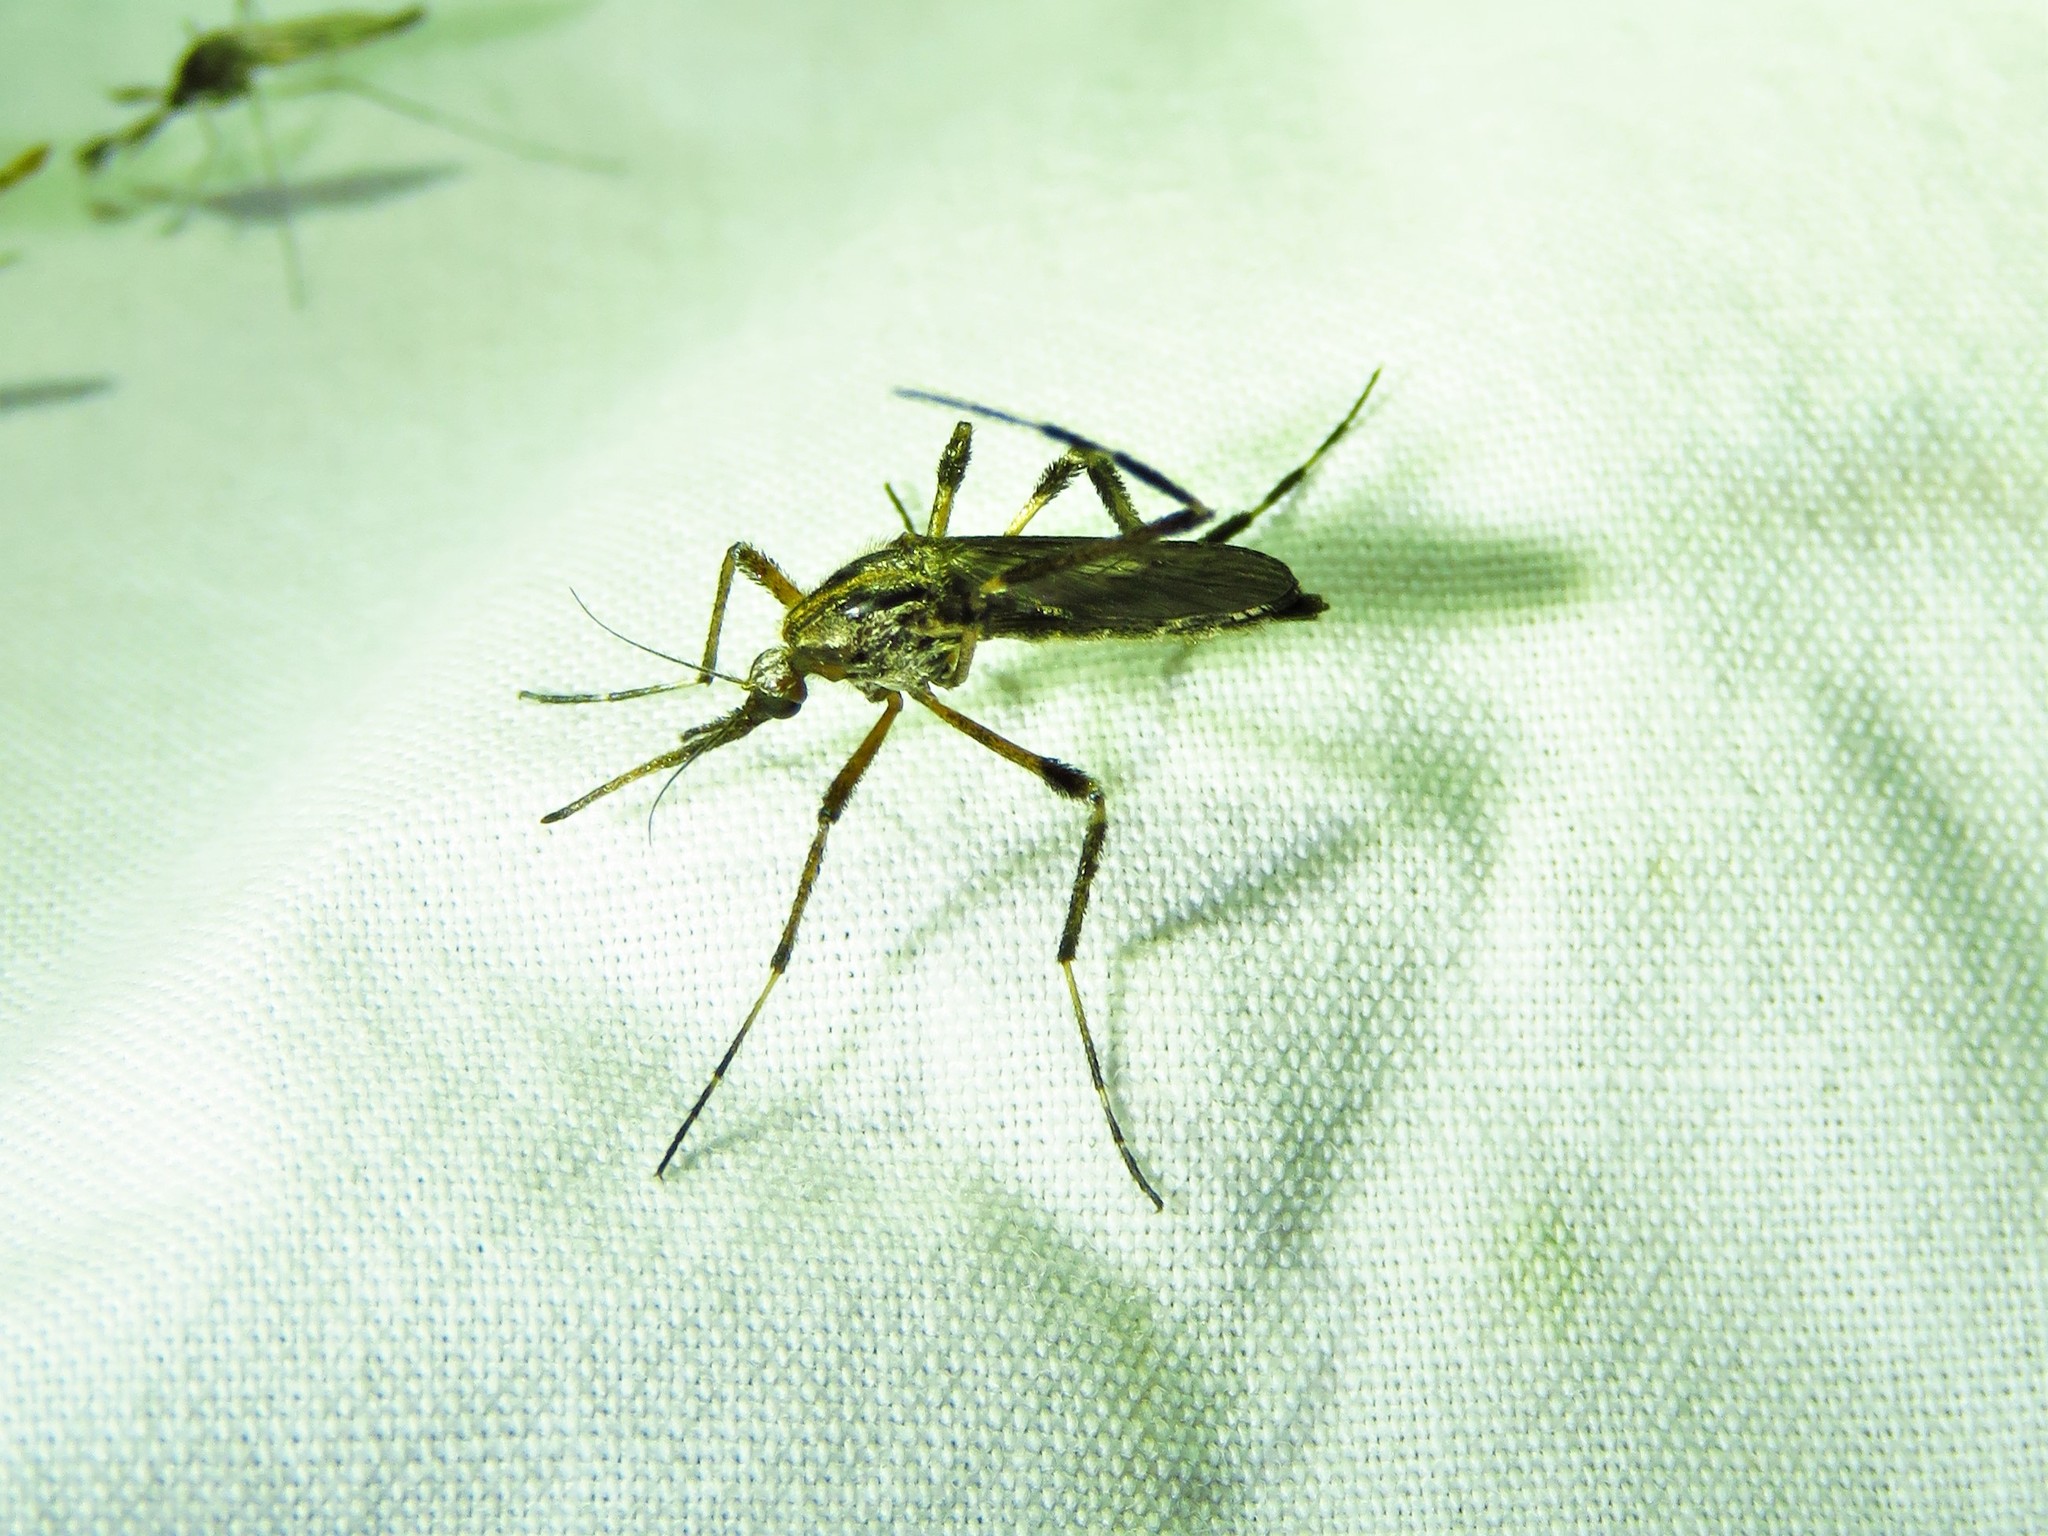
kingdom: Animalia
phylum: Arthropoda
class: Insecta
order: Diptera
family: Culicidae
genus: Psorophora
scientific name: Psorophora ciliata
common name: Gallinipper
